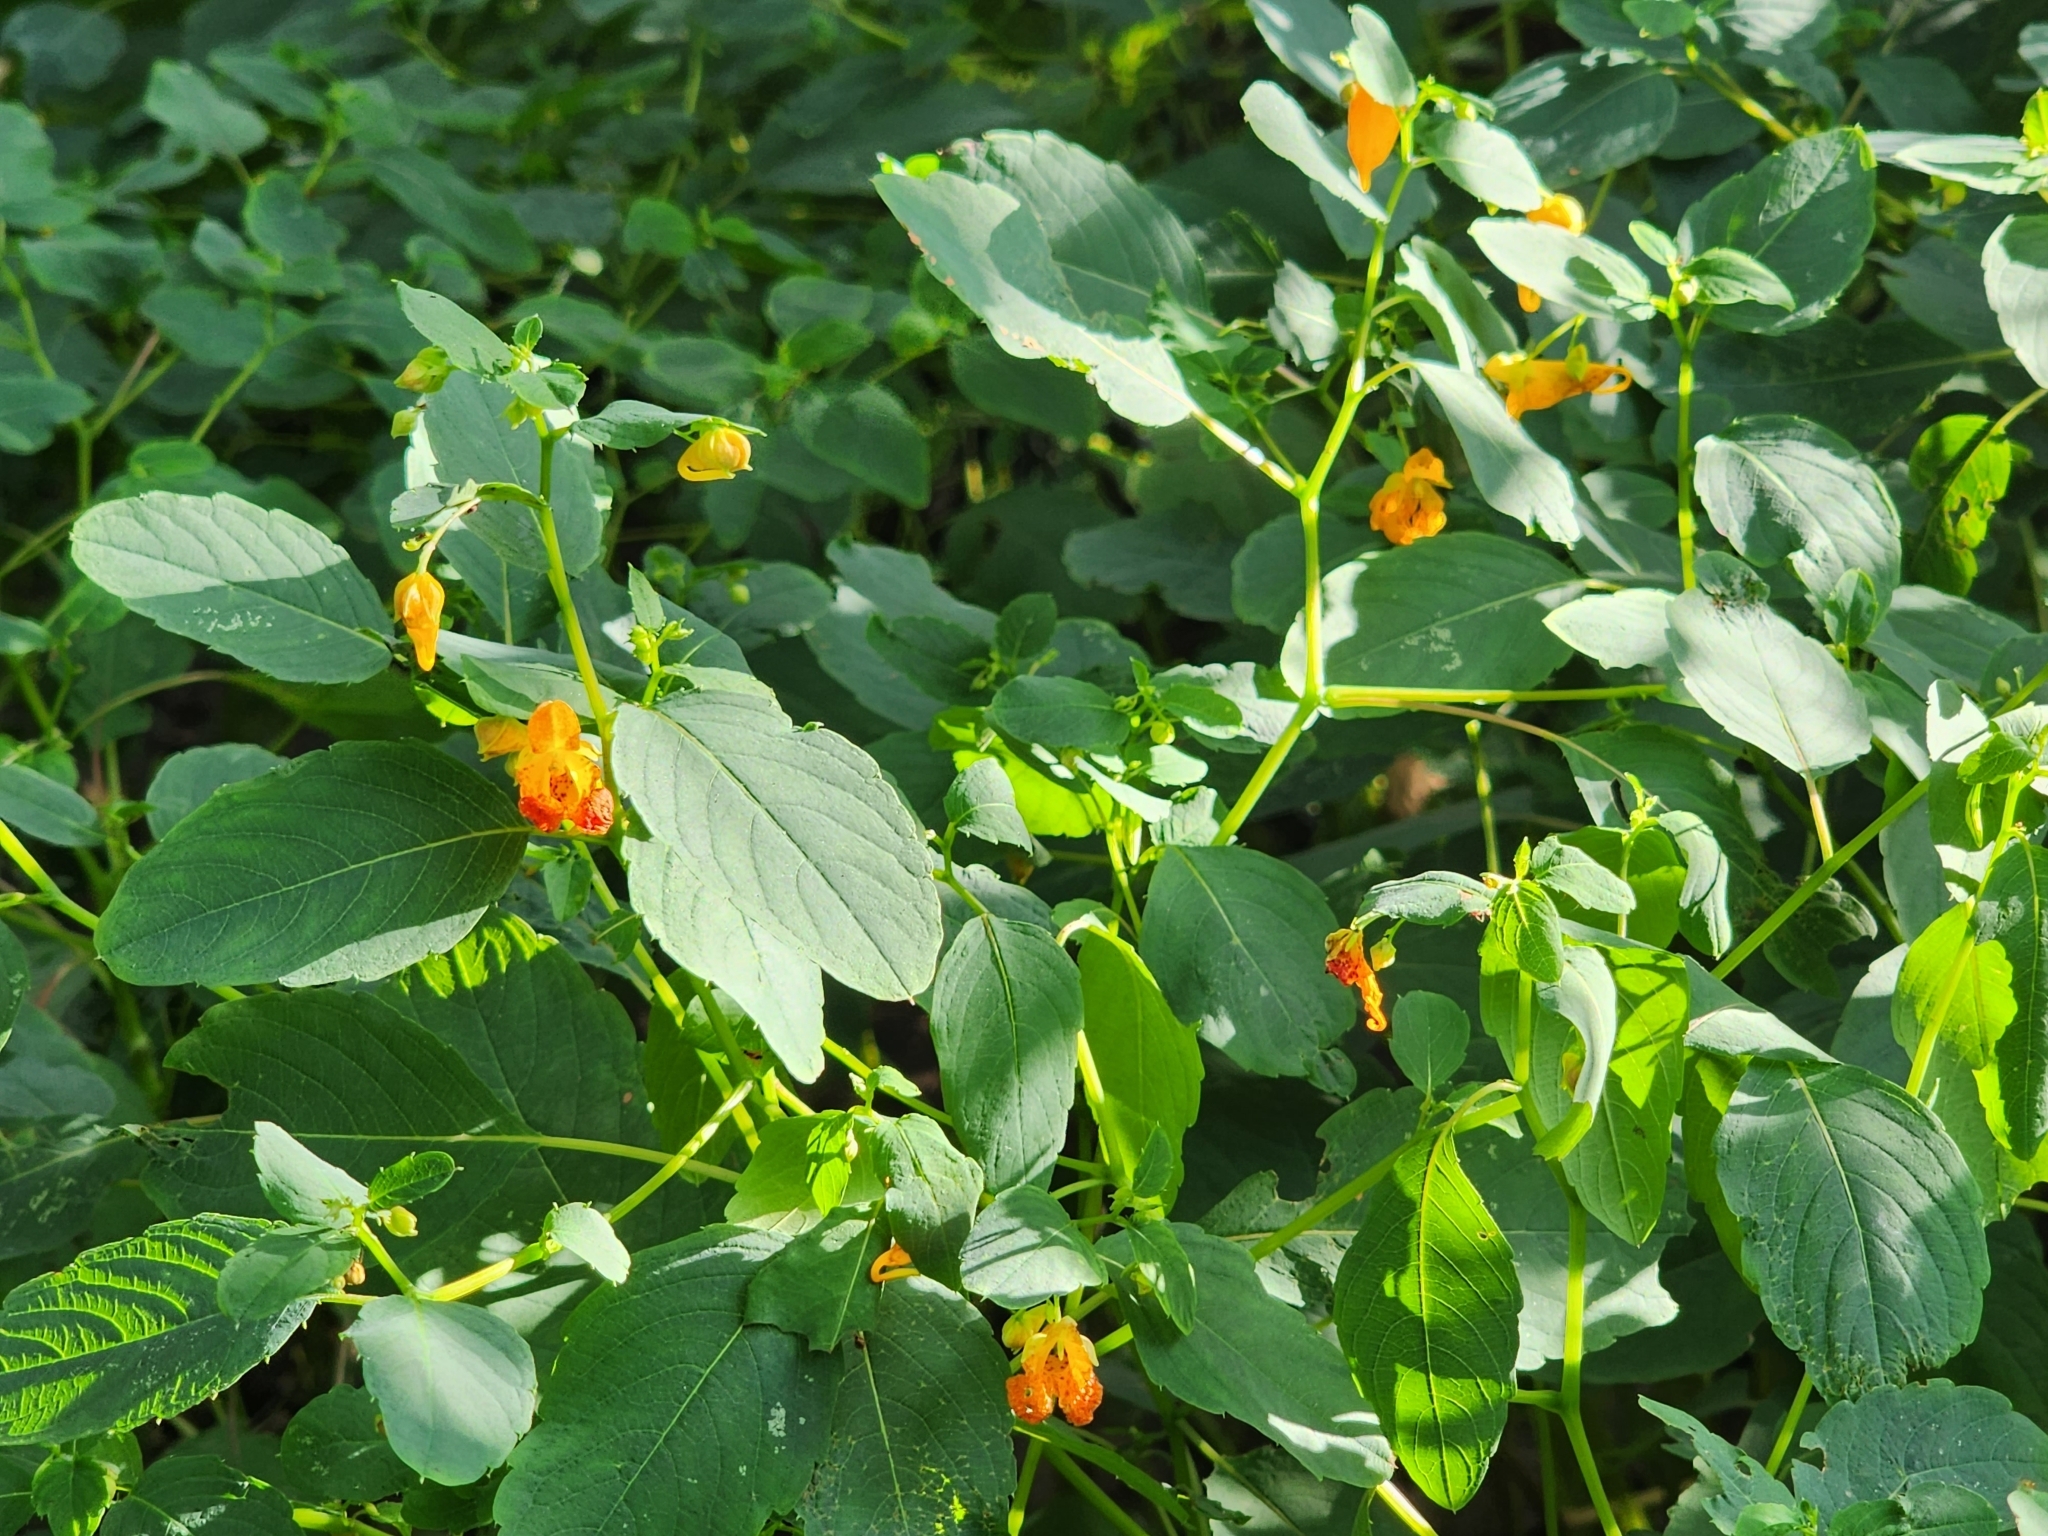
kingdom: Plantae
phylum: Tracheophyta
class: Magnoliopsida
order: Ericales
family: Balsaminaceae
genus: Impatiens
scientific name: Impatiens capensis
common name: Orange balsam
